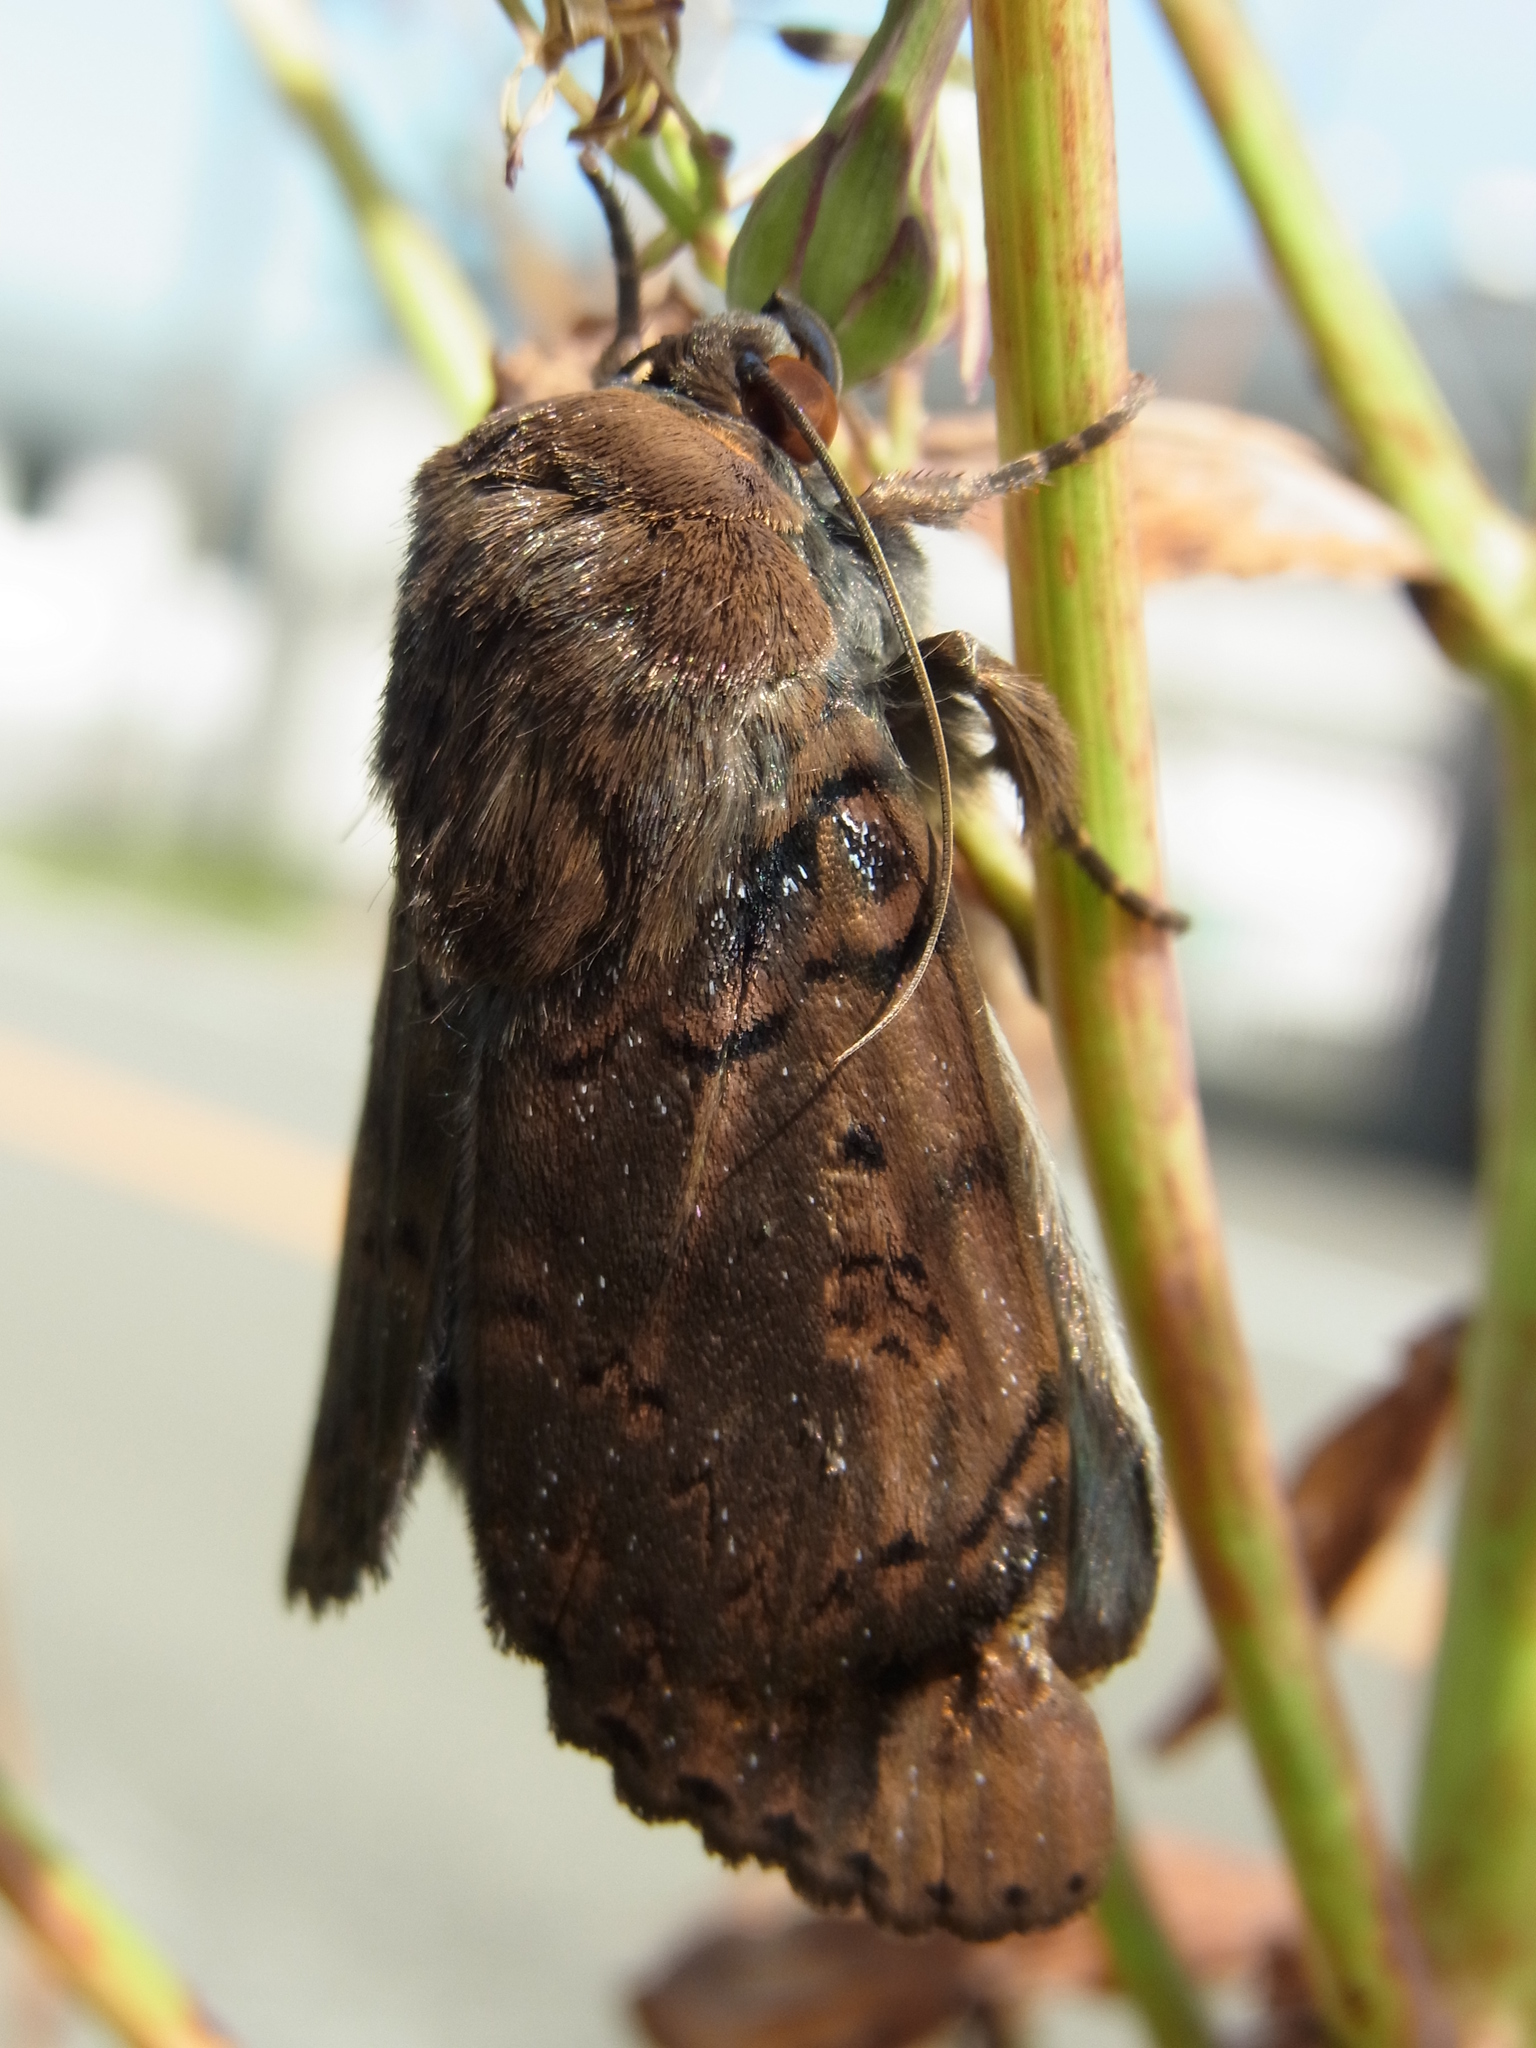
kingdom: Animalia
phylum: Arthropoda
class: Insecta
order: Lepidoptera
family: Erebidae
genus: Arcte
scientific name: Arcte coerula
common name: Ramie moth
